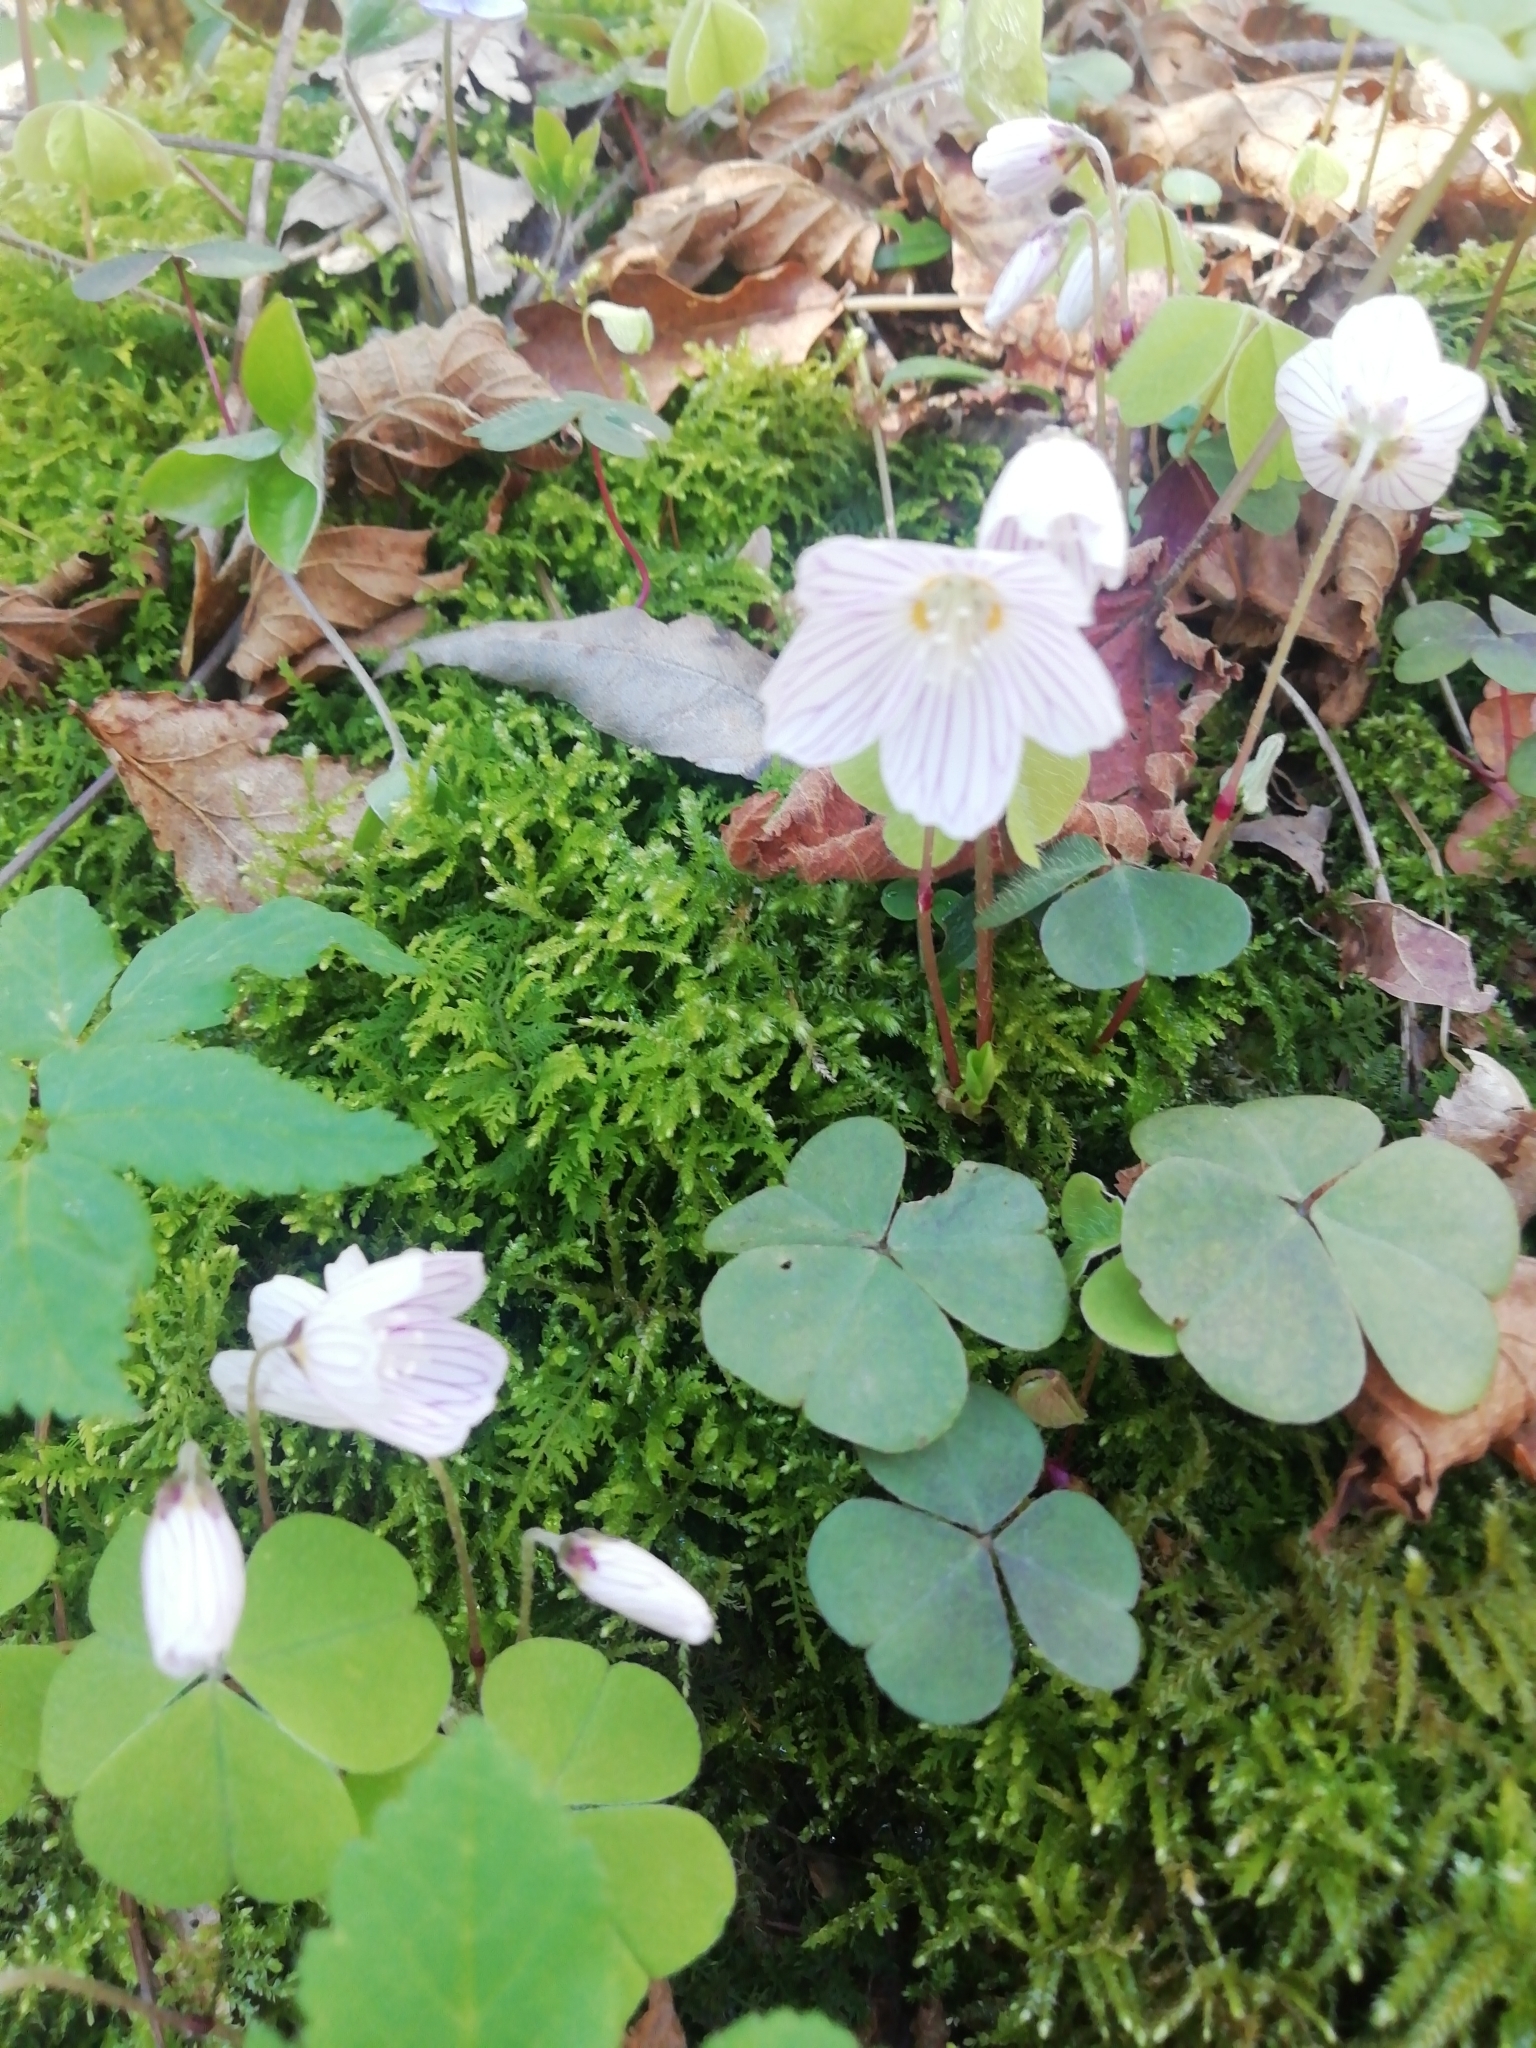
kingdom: Plantae
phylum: Tracheophyta
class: Magnoliopsida
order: Oxalidales
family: Oxalidaceae
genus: Oxalis
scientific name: Oxalis acetosella
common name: Wood-sorrel
